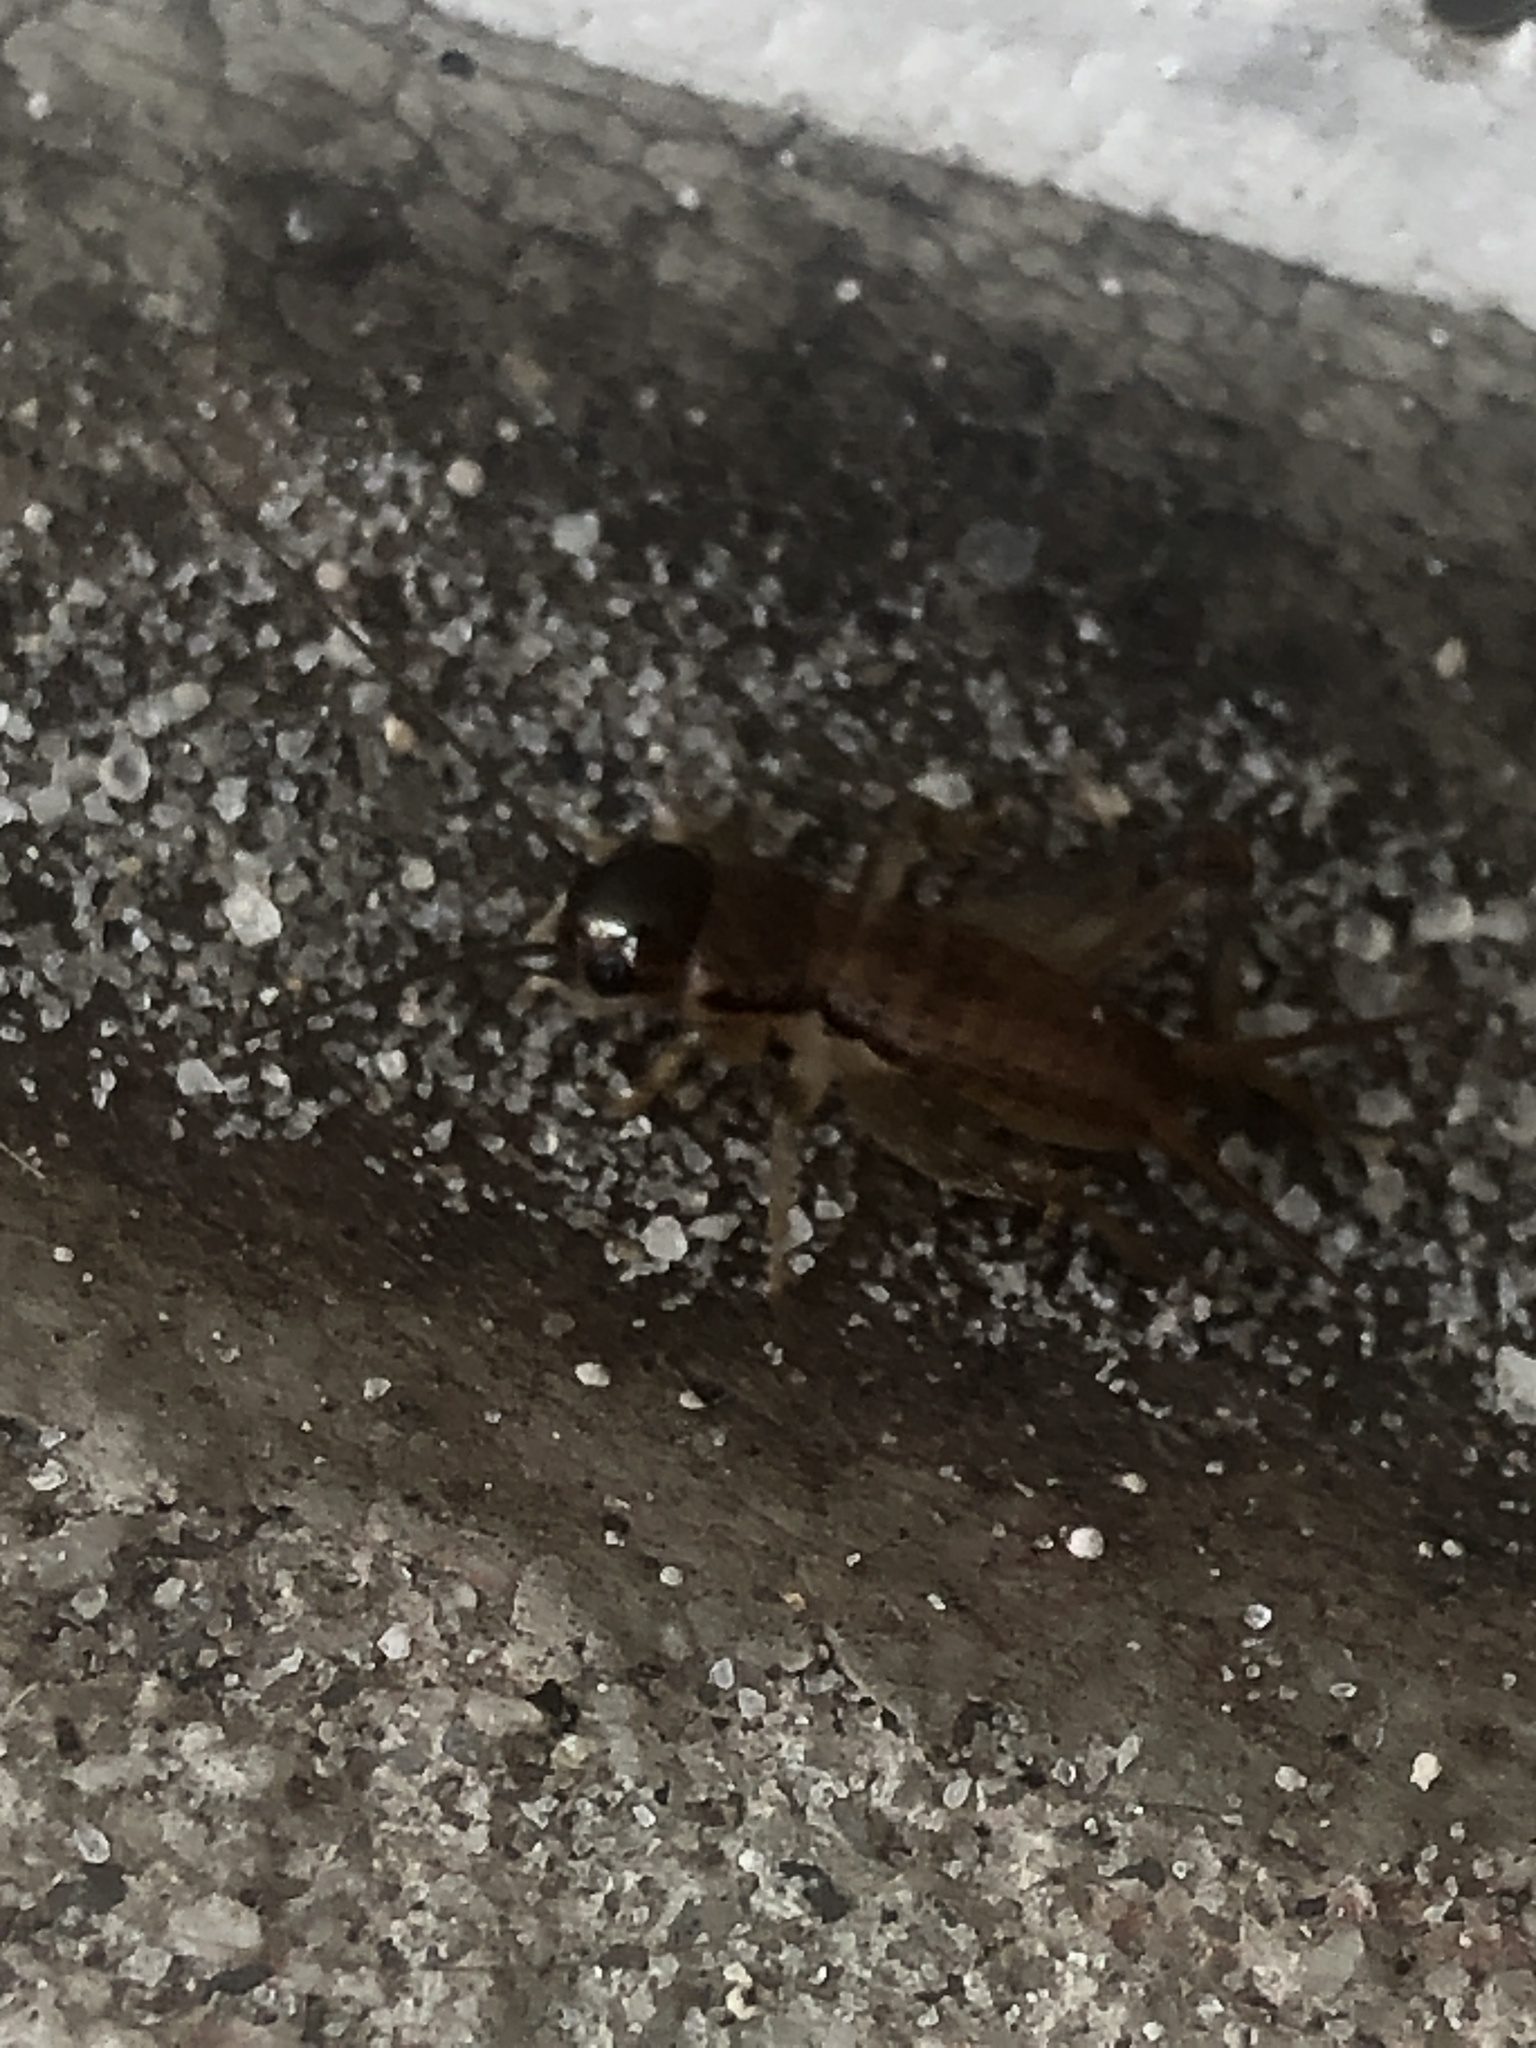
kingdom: Animalia
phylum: Arthropoda
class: Insecta
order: Orthoptera
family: Gryllidae
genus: Miogryllus
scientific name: Miogryllus verticalis
